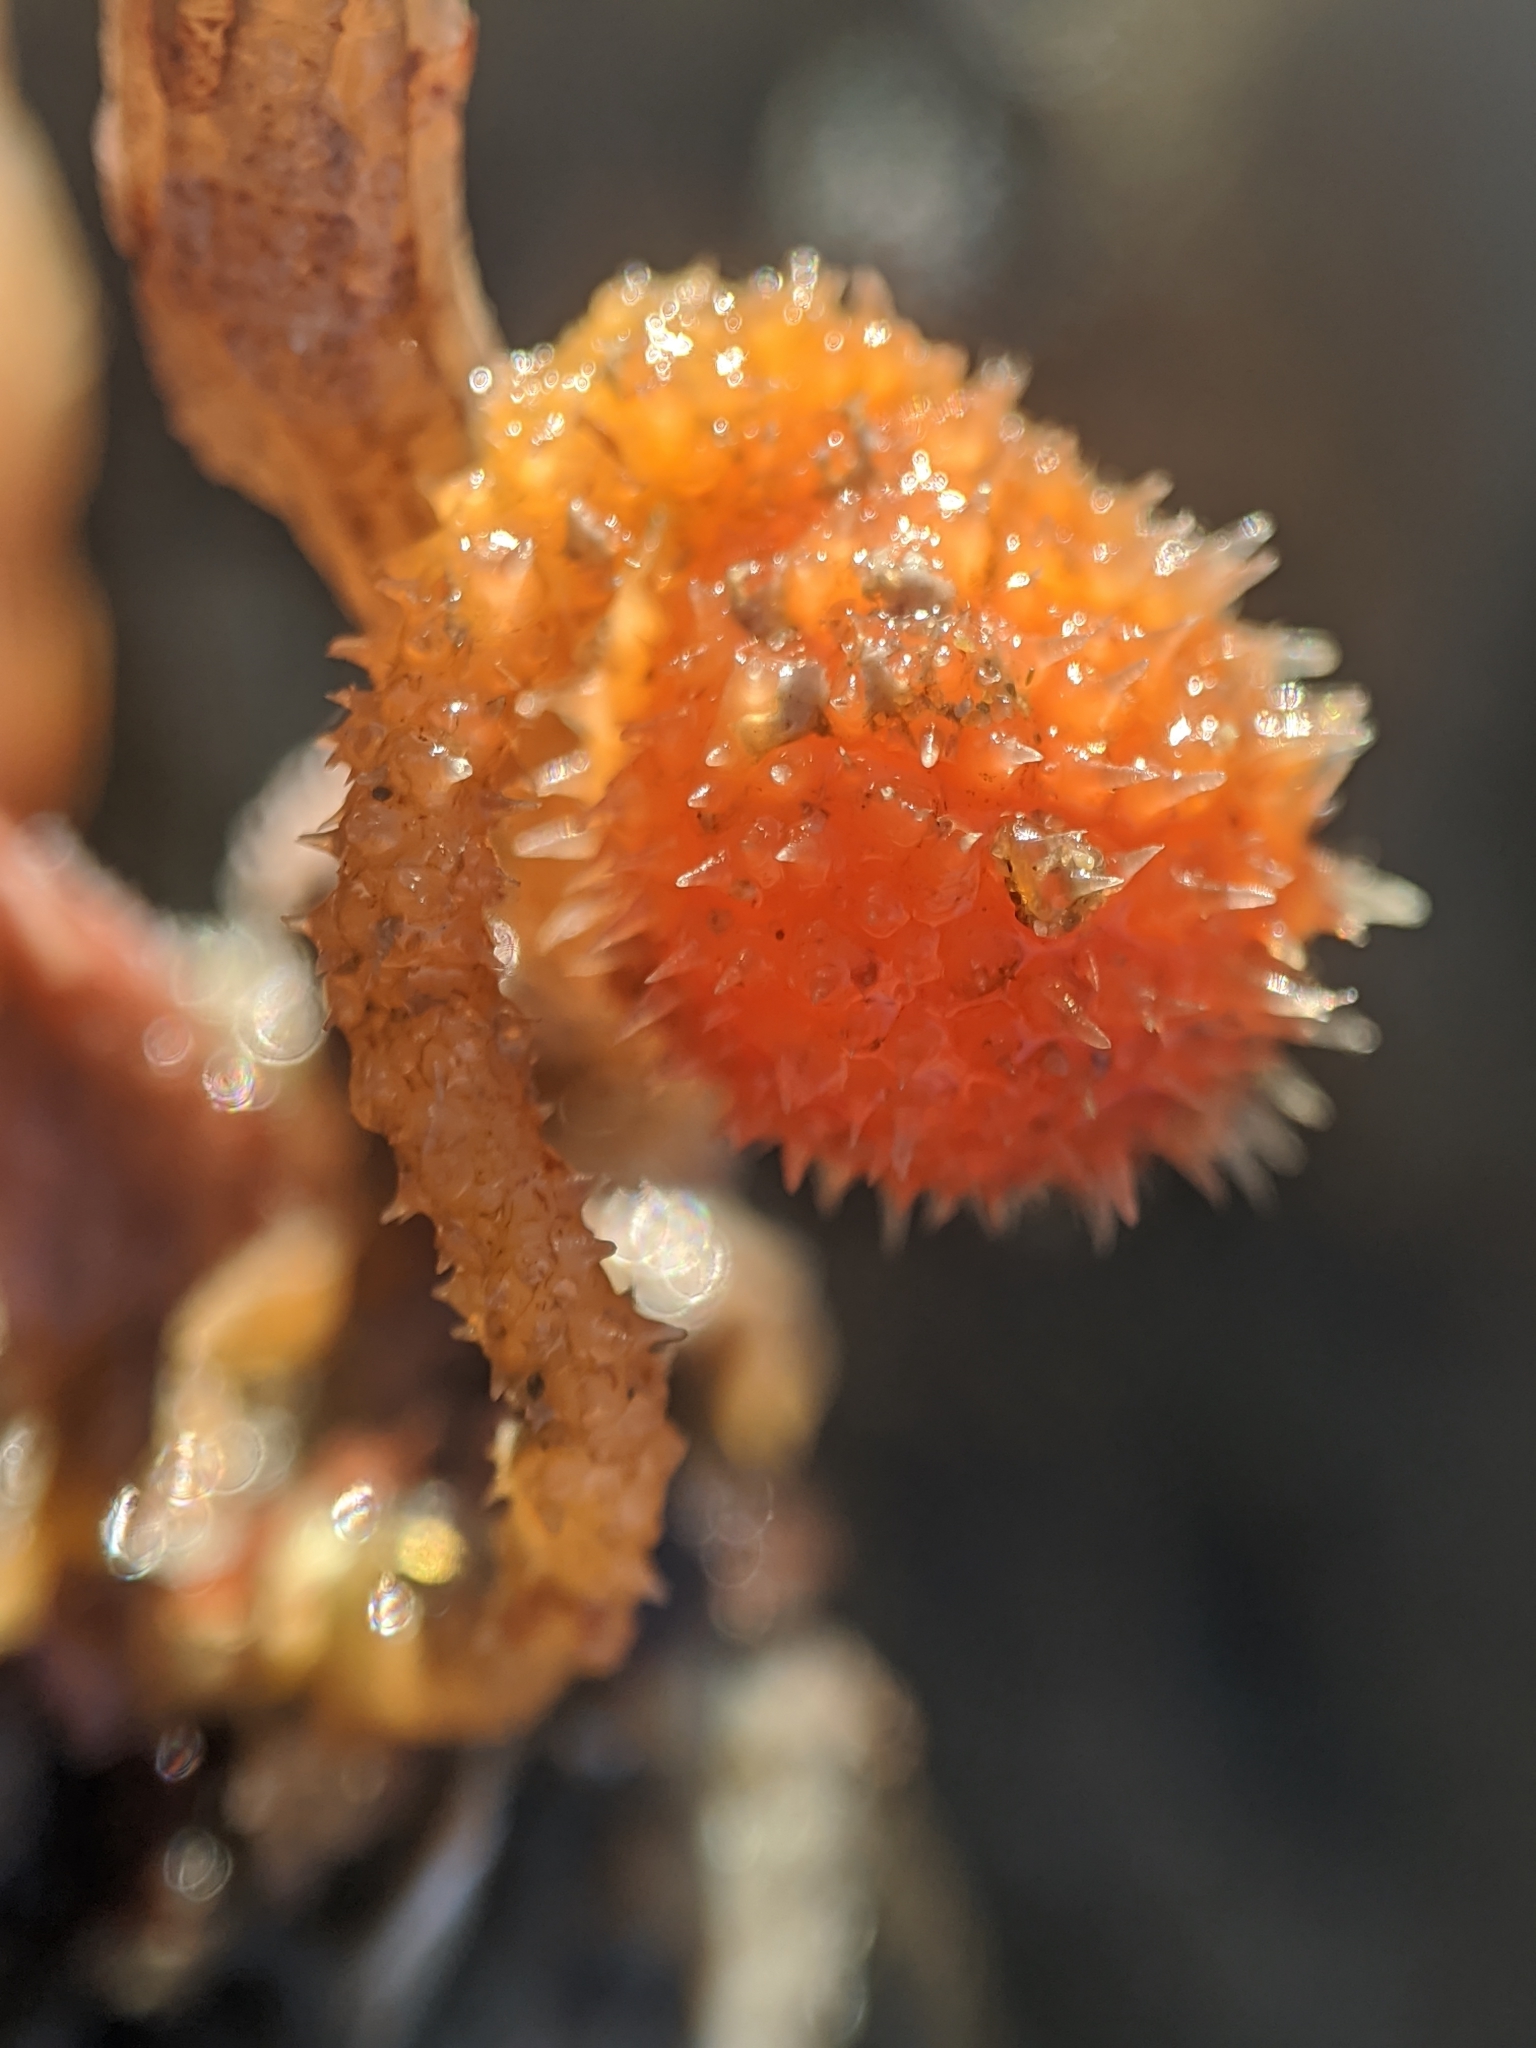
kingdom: Animalia
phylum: Chordata
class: Ascidiacea
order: Stolidobranchia
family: Pyuridae
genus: Boltenia
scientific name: Boltenia villosa
